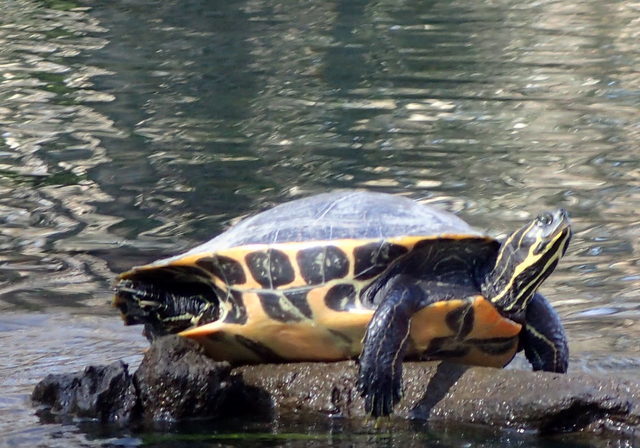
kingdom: Animalia
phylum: Chordata
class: Testudines
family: Emydidae
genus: Pseudemys
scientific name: Pseudemys concinna
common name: Eastern river cooter
